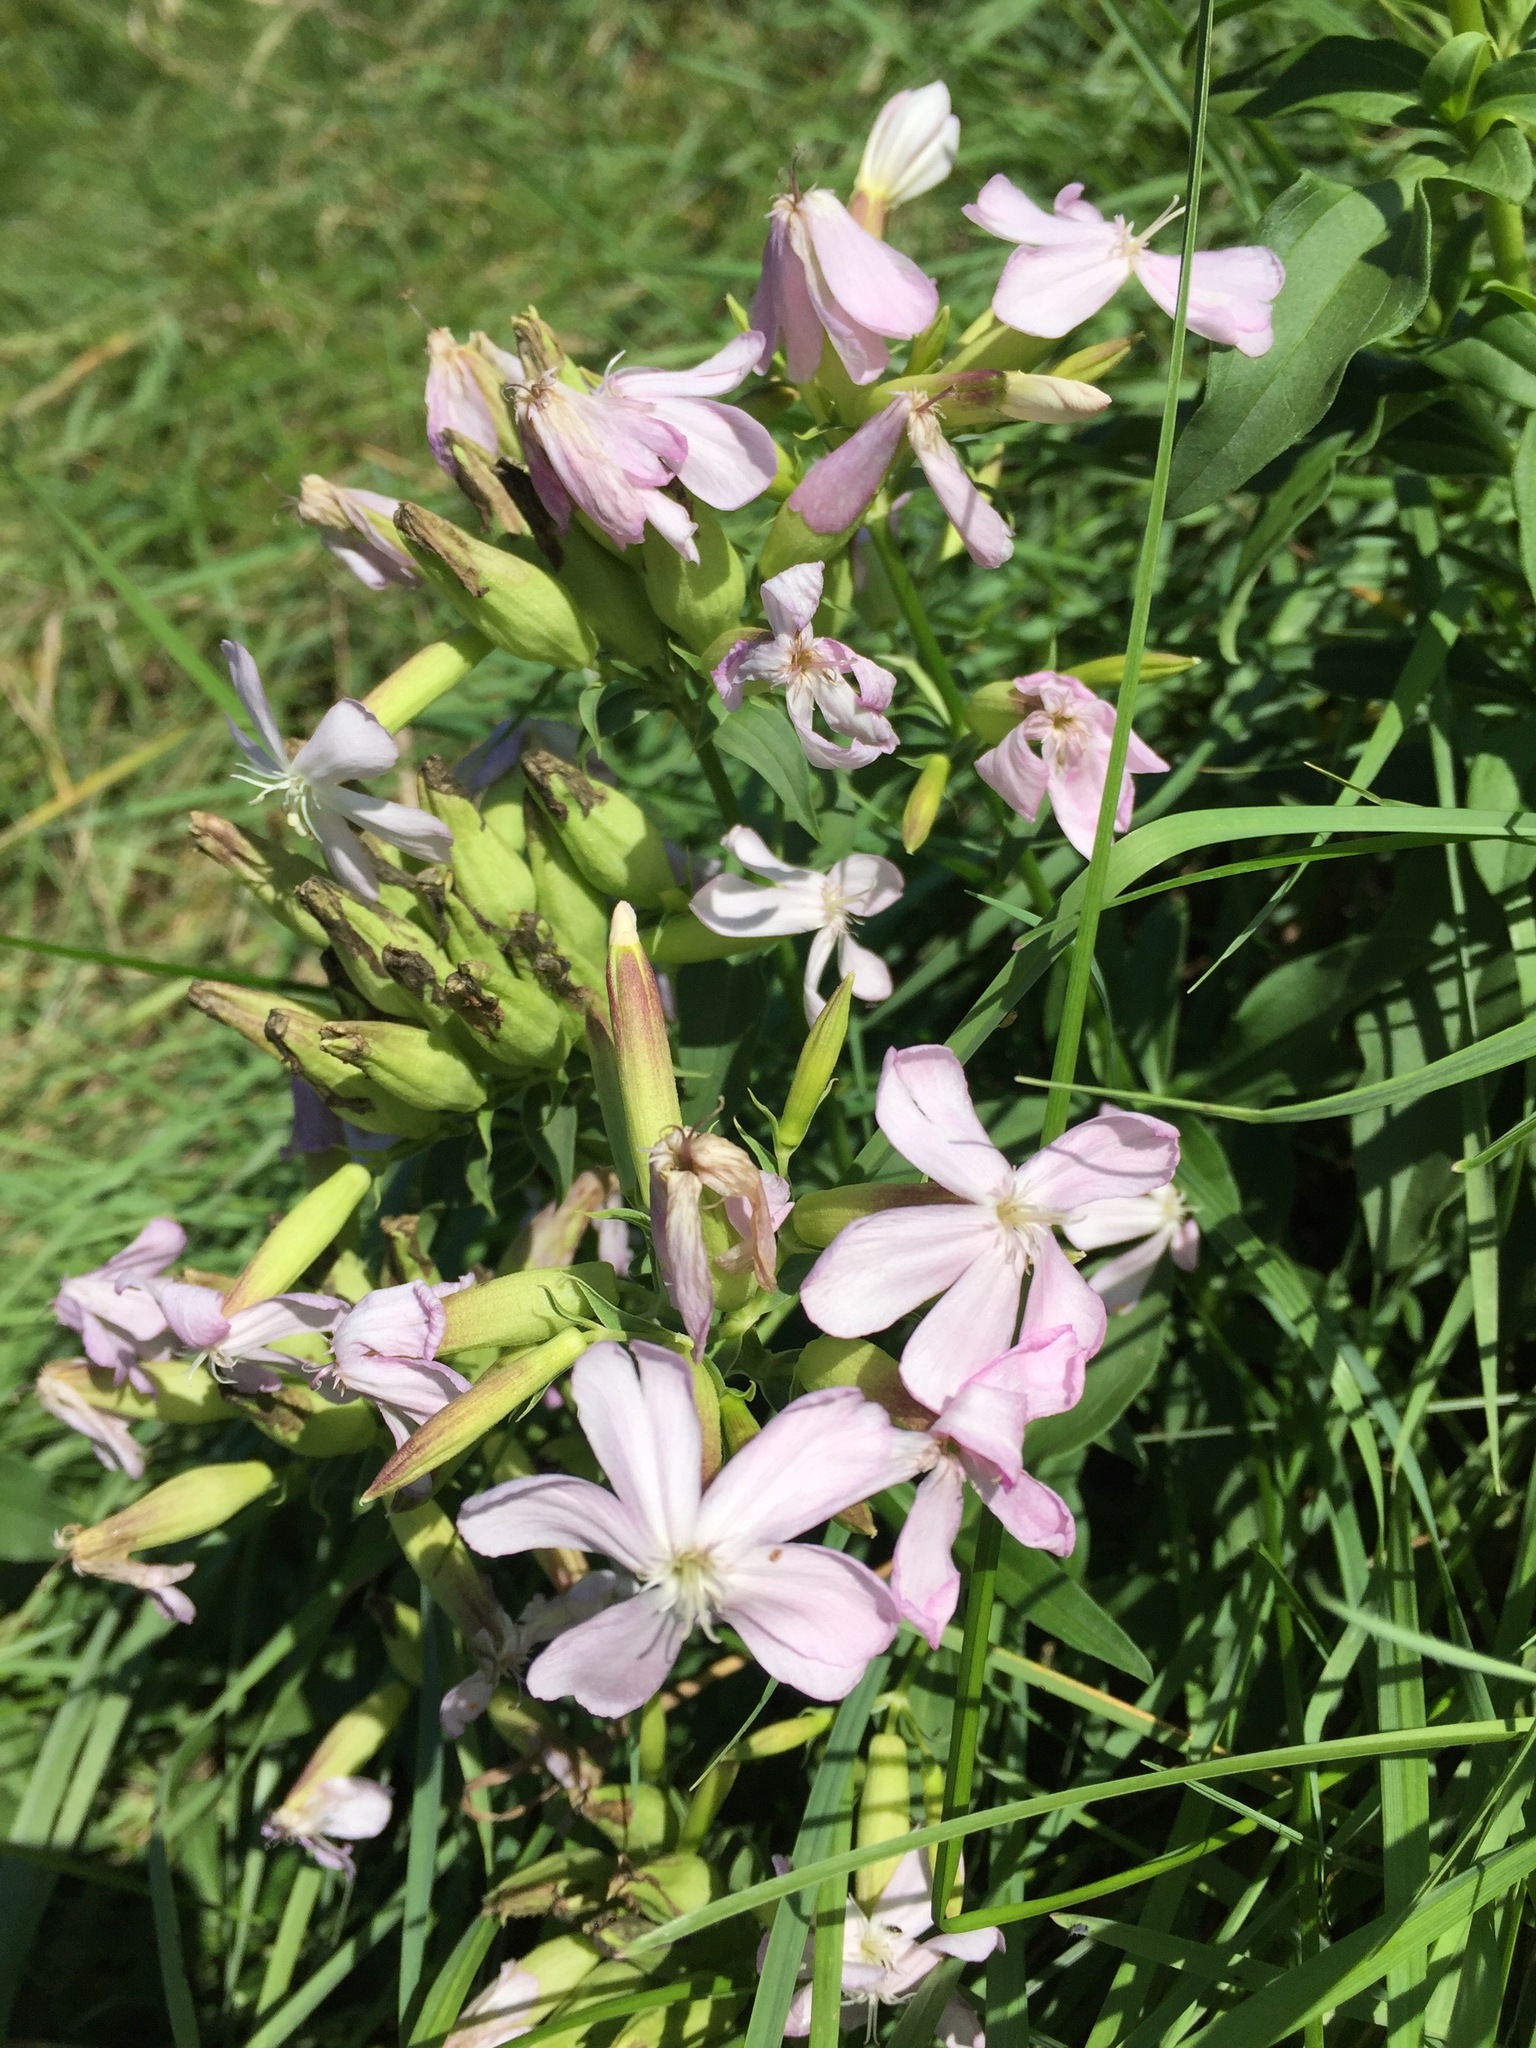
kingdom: Plantae
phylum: Tracheophyta
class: Magnoliopsida
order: Caryophyllales
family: Caryophyllaceae
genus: Saponaria
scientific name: Saponaria officinalis
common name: Soapwort
